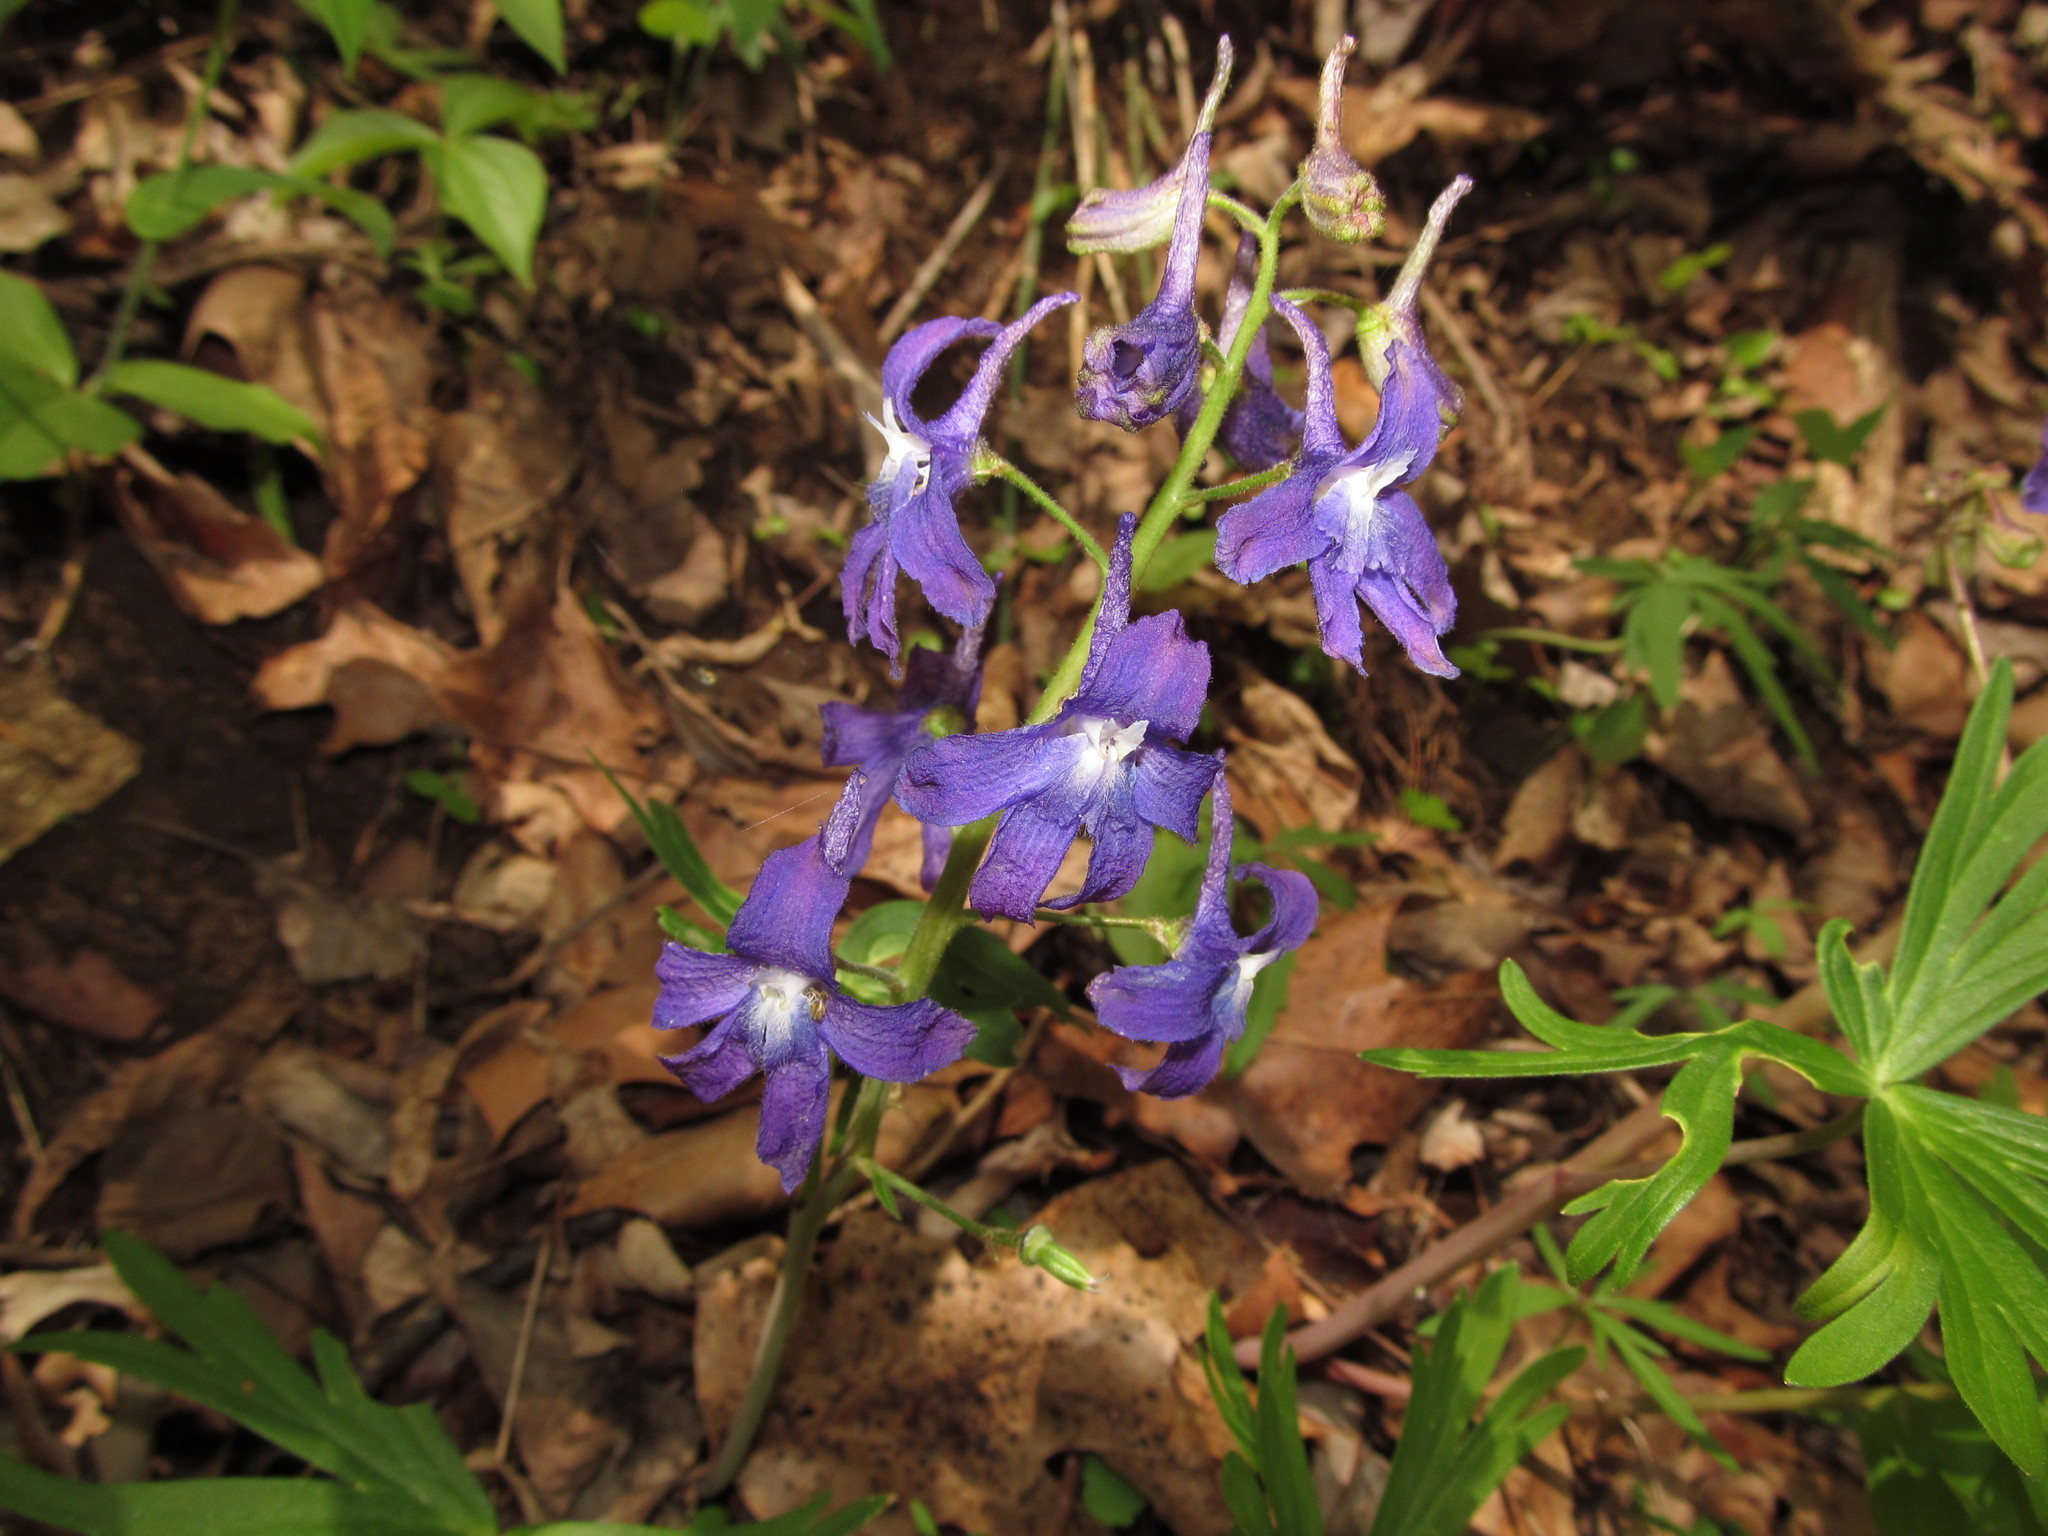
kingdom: Plantae
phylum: Tracheophyta
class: Magnoliopsida
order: Ranunculales
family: Ranunculaceae
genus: Delphinium
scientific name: Delphinium tricorne
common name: Dwarf larkspur
